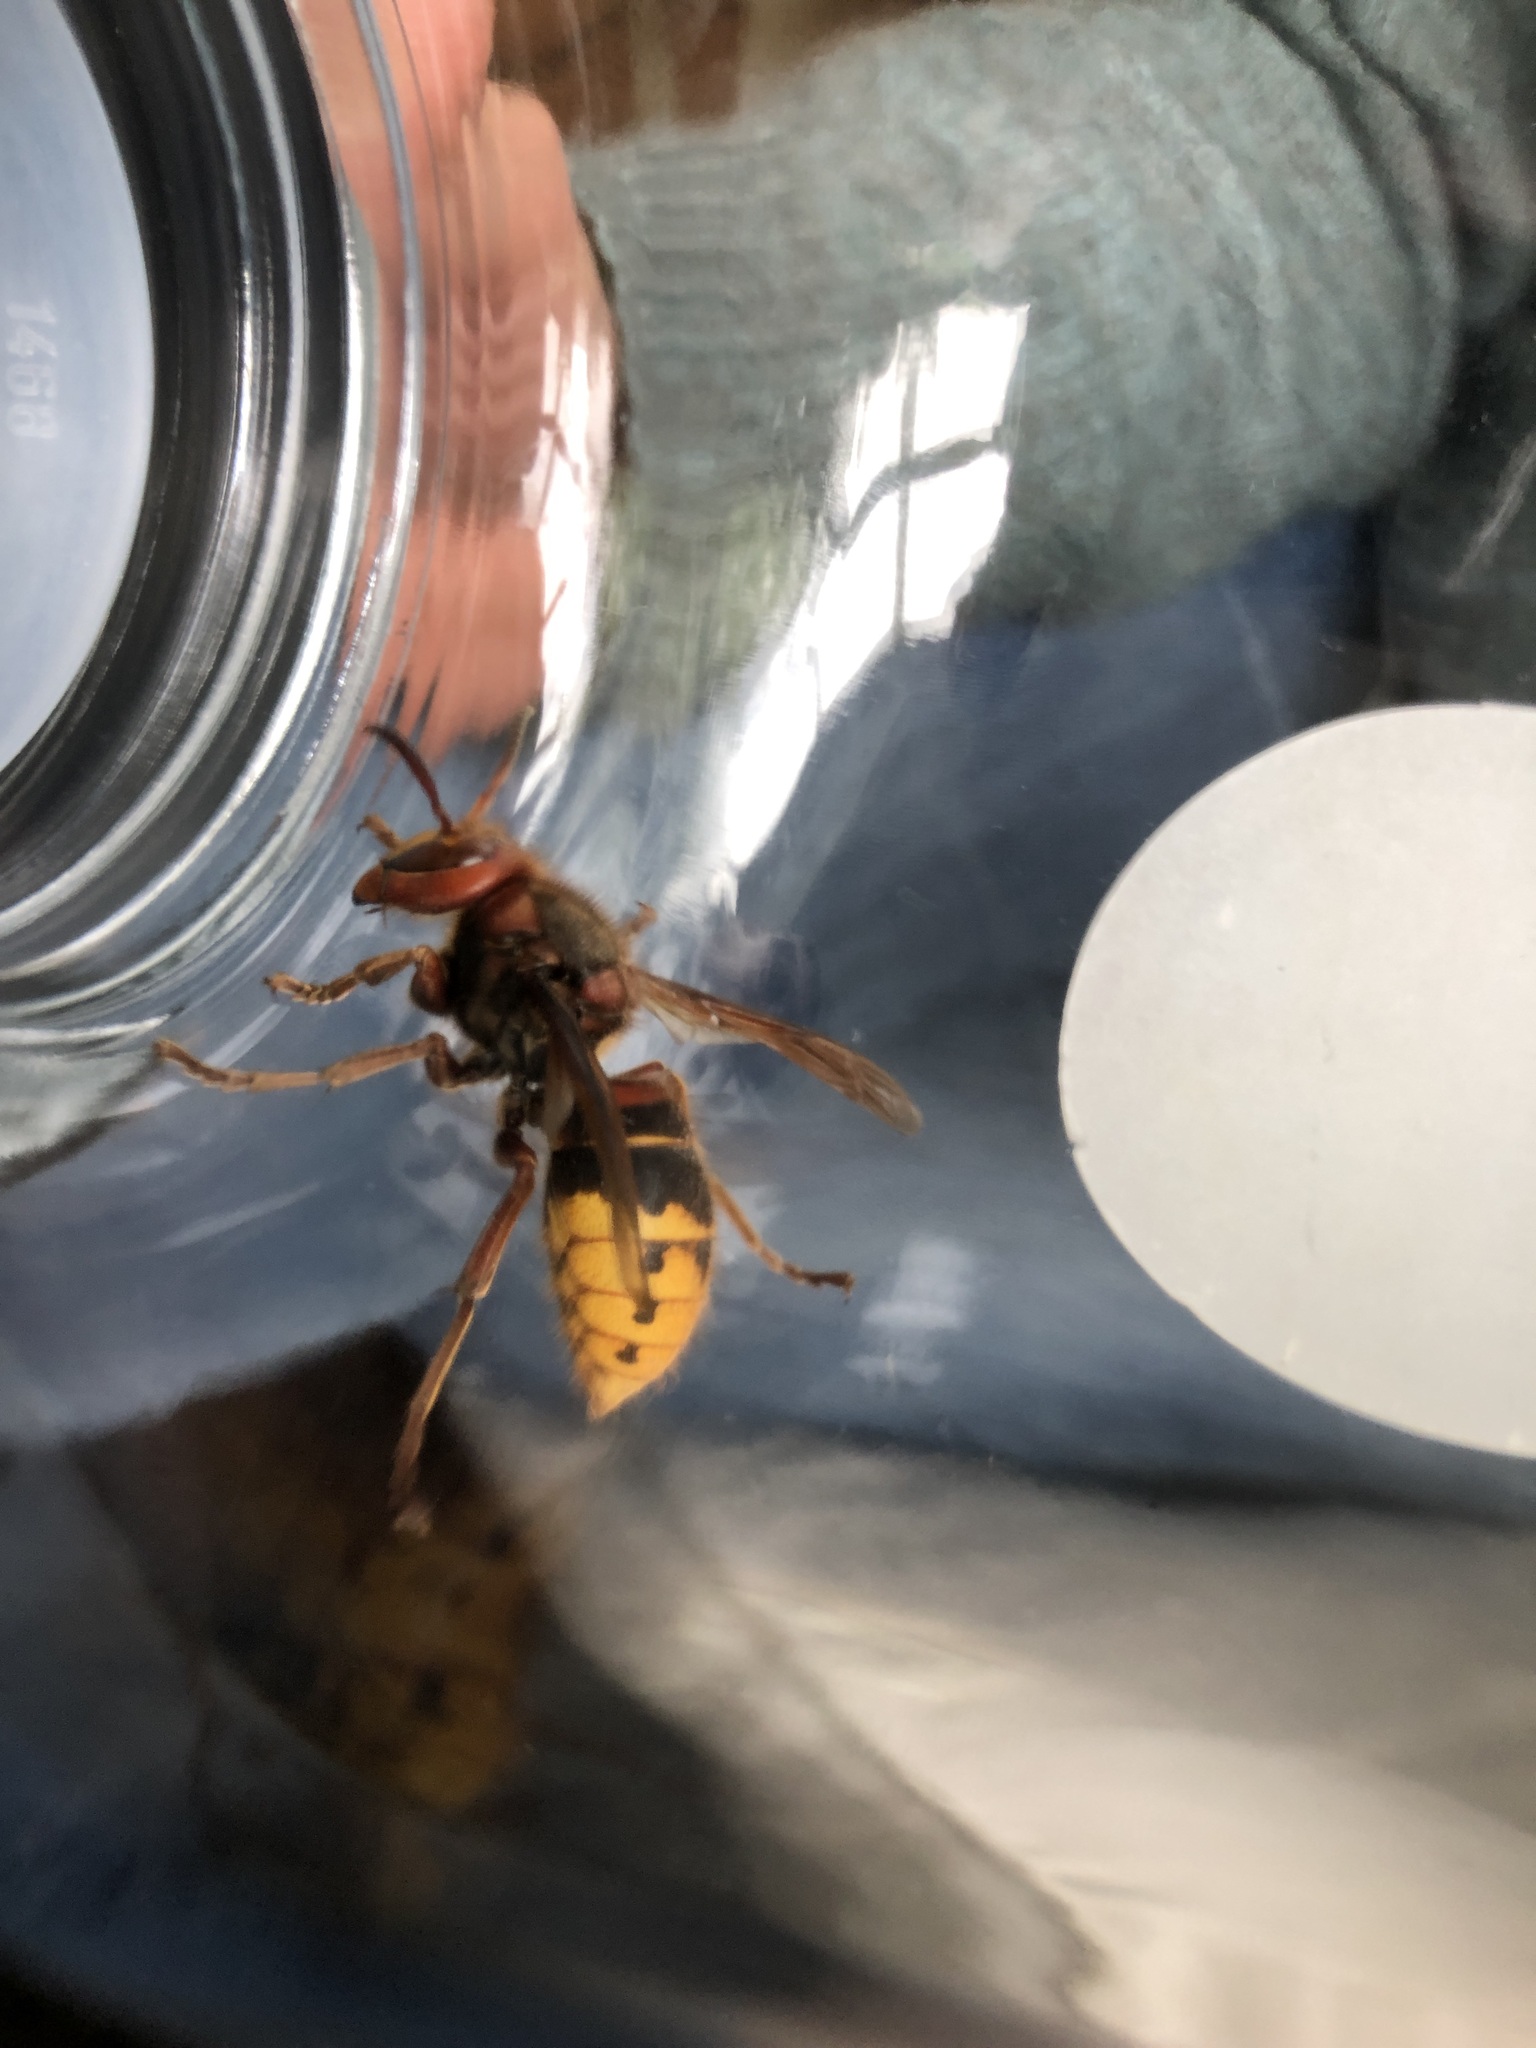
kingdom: Animalia
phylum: Arthropoda
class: Insecta
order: Hymenoptera
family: Vespidae
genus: Vespa
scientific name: Vespa crabro
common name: Hornet
